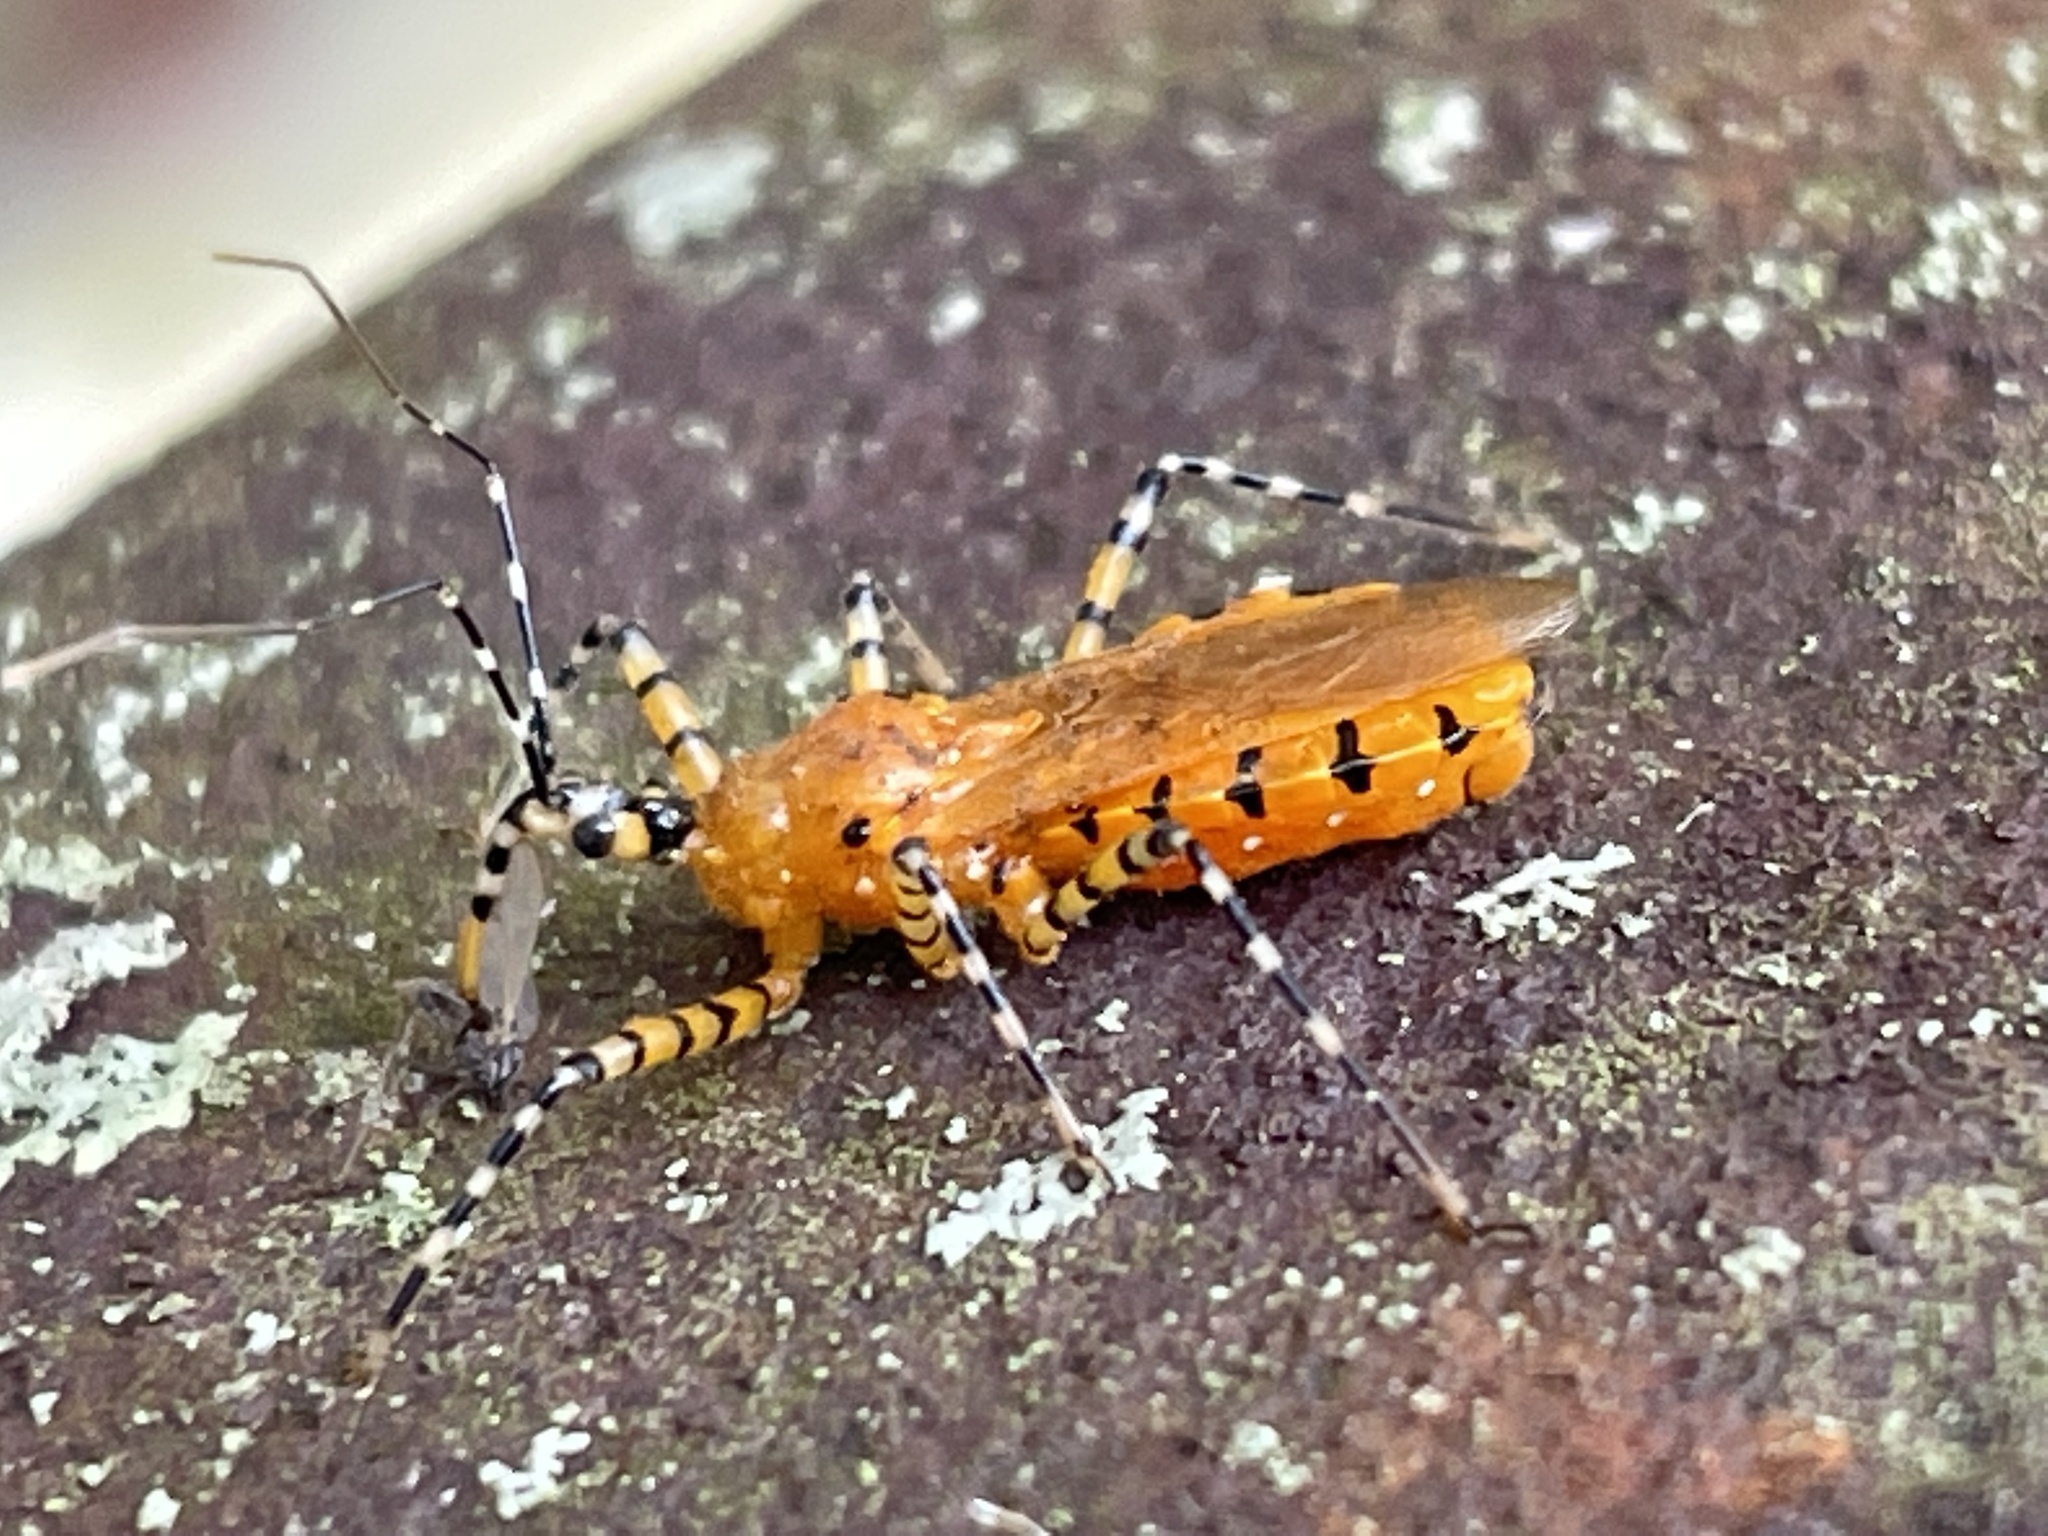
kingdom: Animalia
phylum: Arthropoda
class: Insecta
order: Hemiptera
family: Reduviidae
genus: Pselliopus
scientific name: Pselliopus barberi
